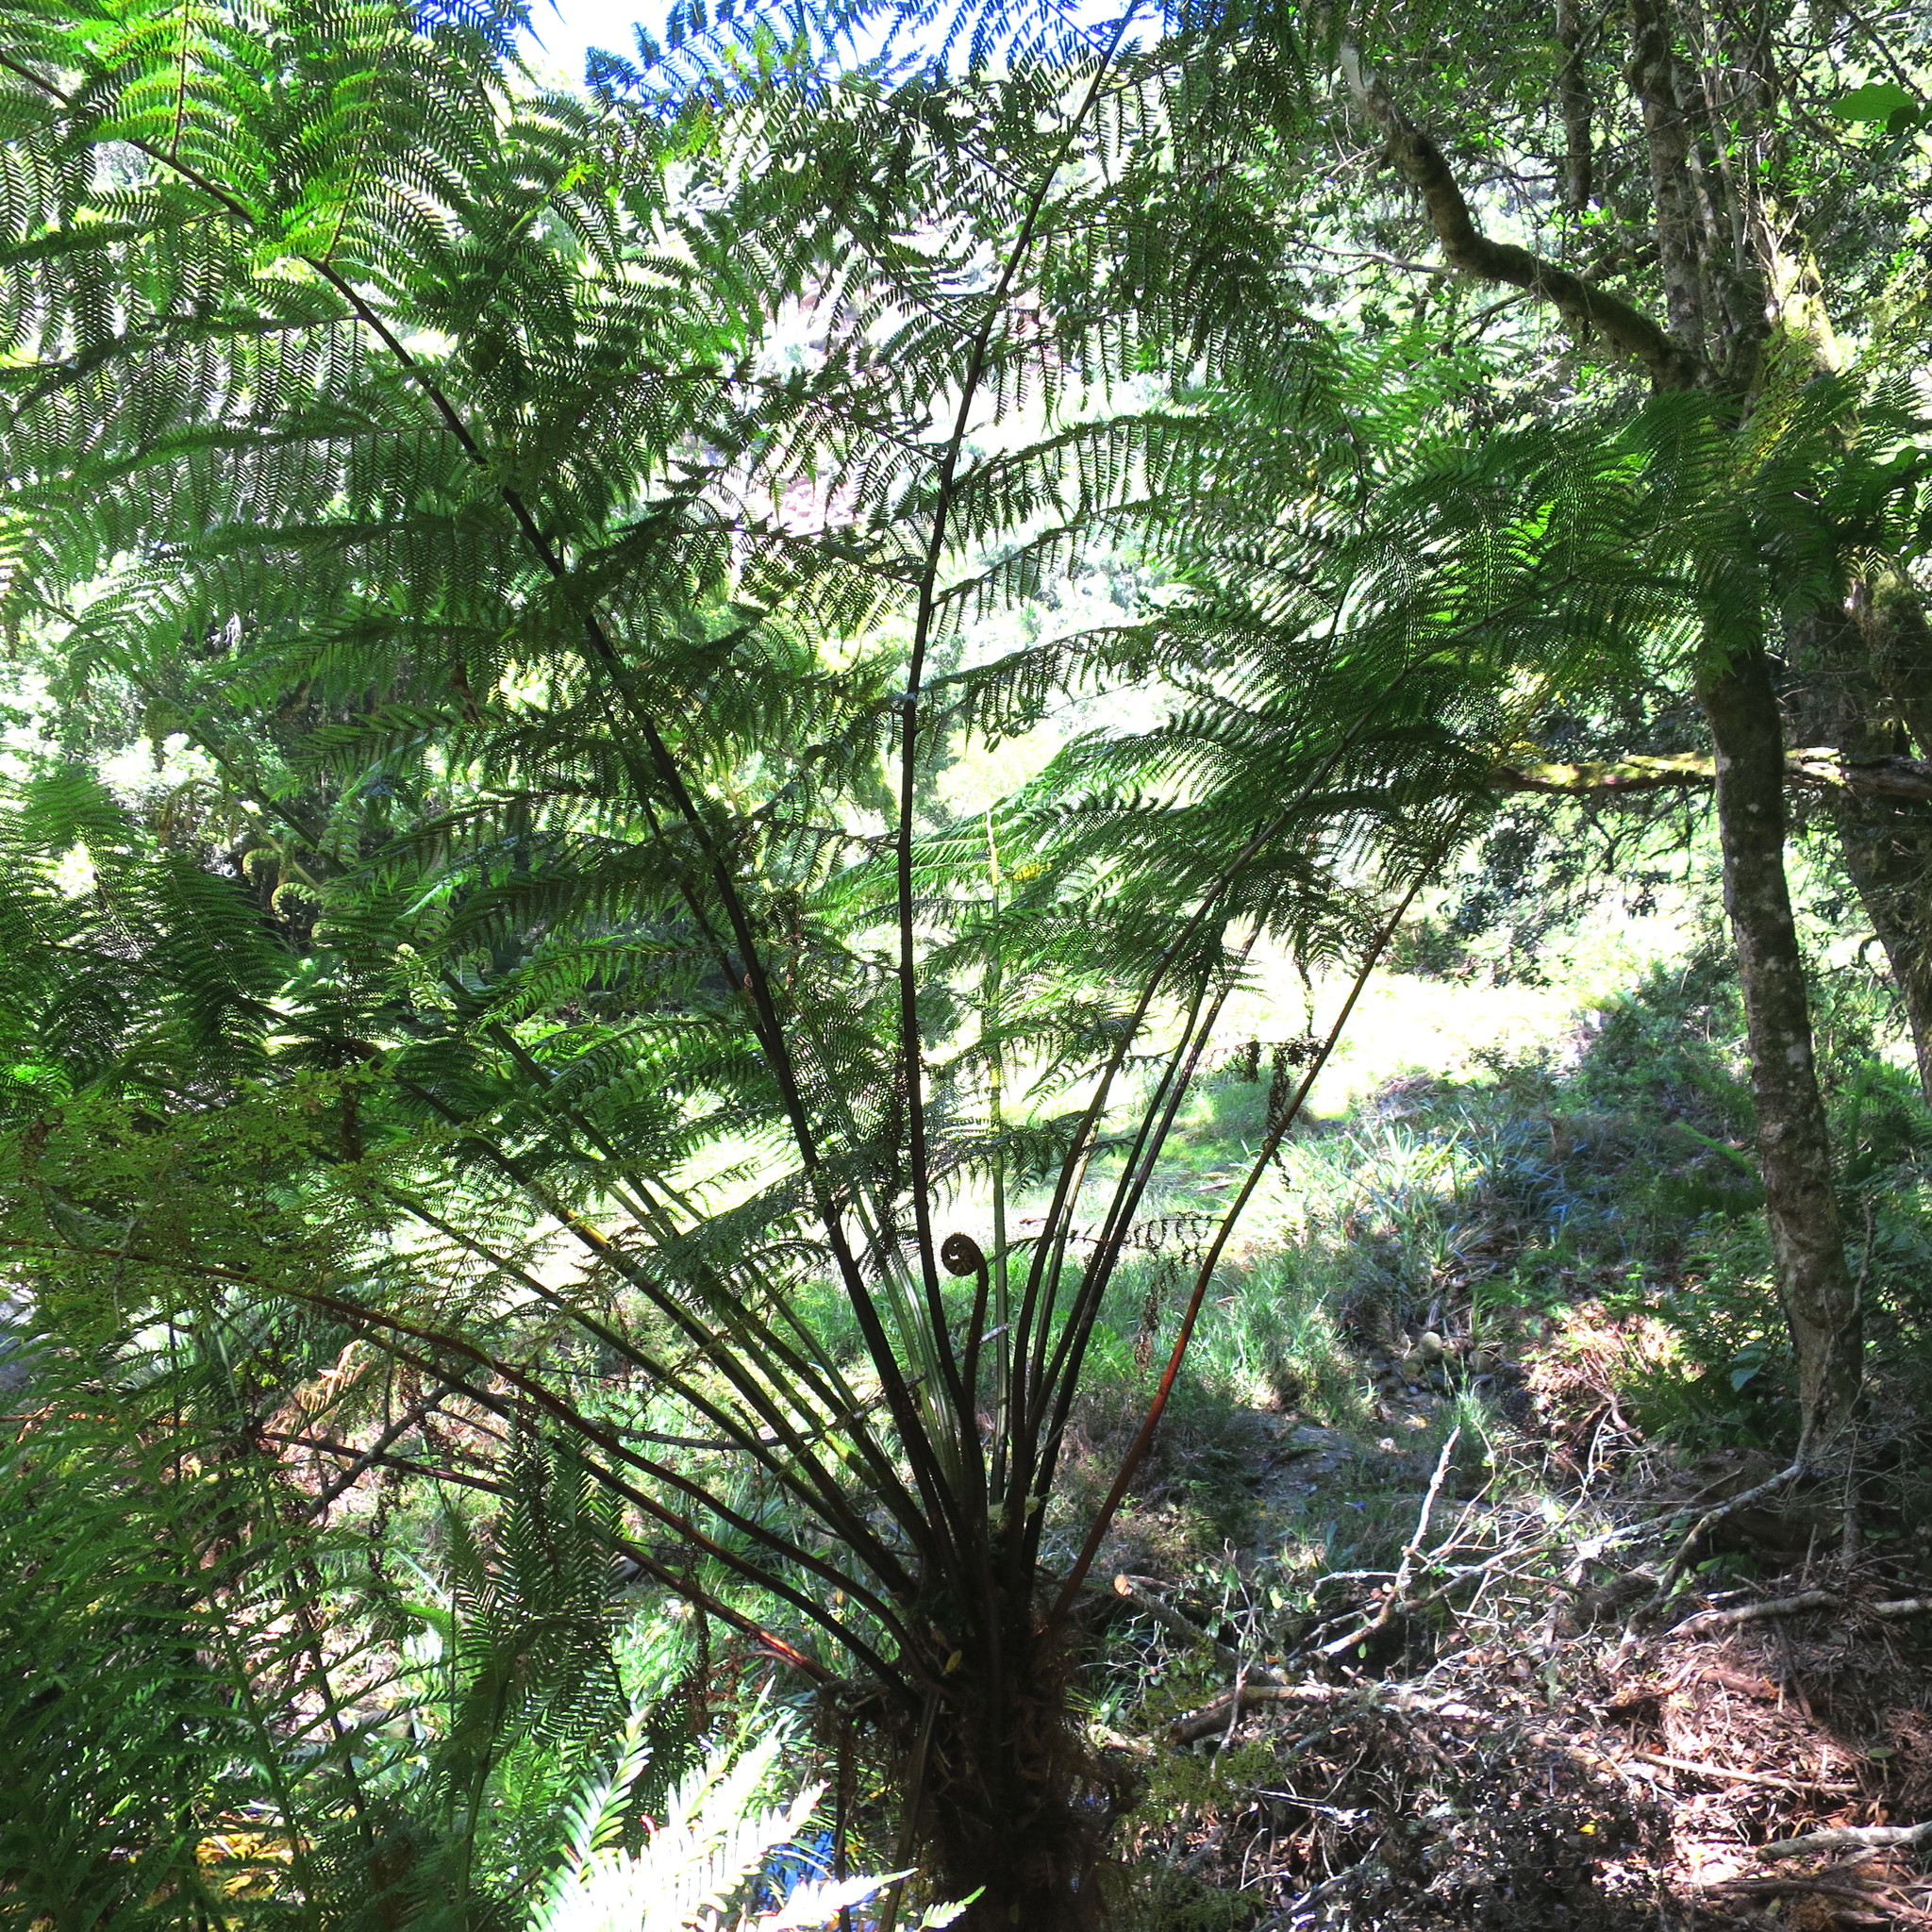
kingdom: Plantae
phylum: Tracheophyta
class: Polypodiopsida
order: Cyatheales
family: Cyatheaceae
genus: Gymnosphaera
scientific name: Gymnosphaera capensis
